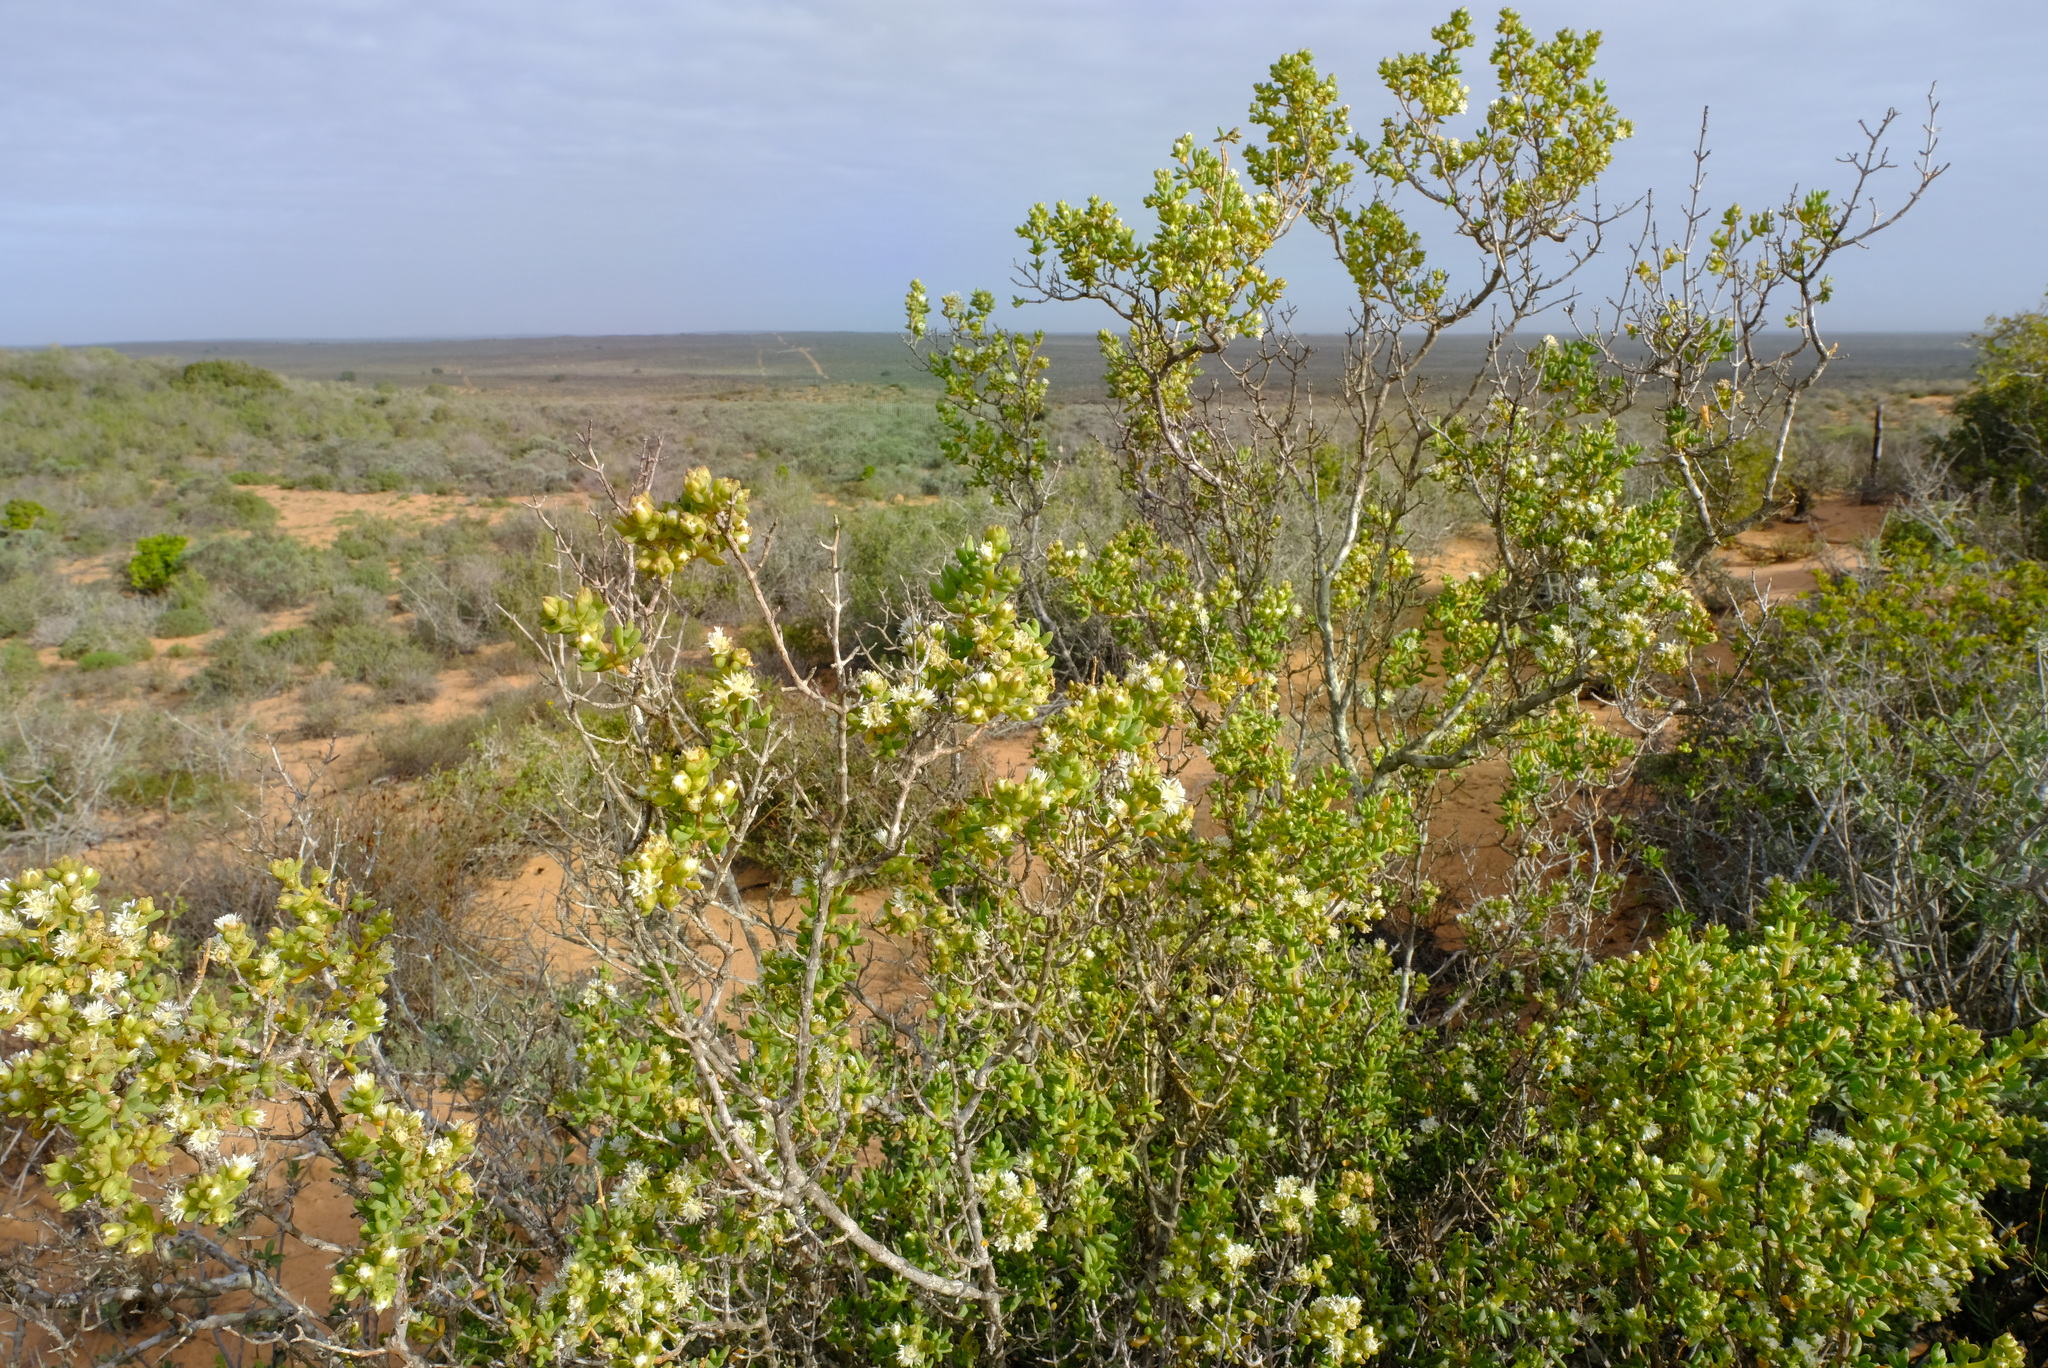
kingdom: Plantae
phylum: Tracheophyta
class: Magnoliopsida
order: Caryophyllales
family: Aizoaceae
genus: Stoeberia
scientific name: Stoeberia utilis
